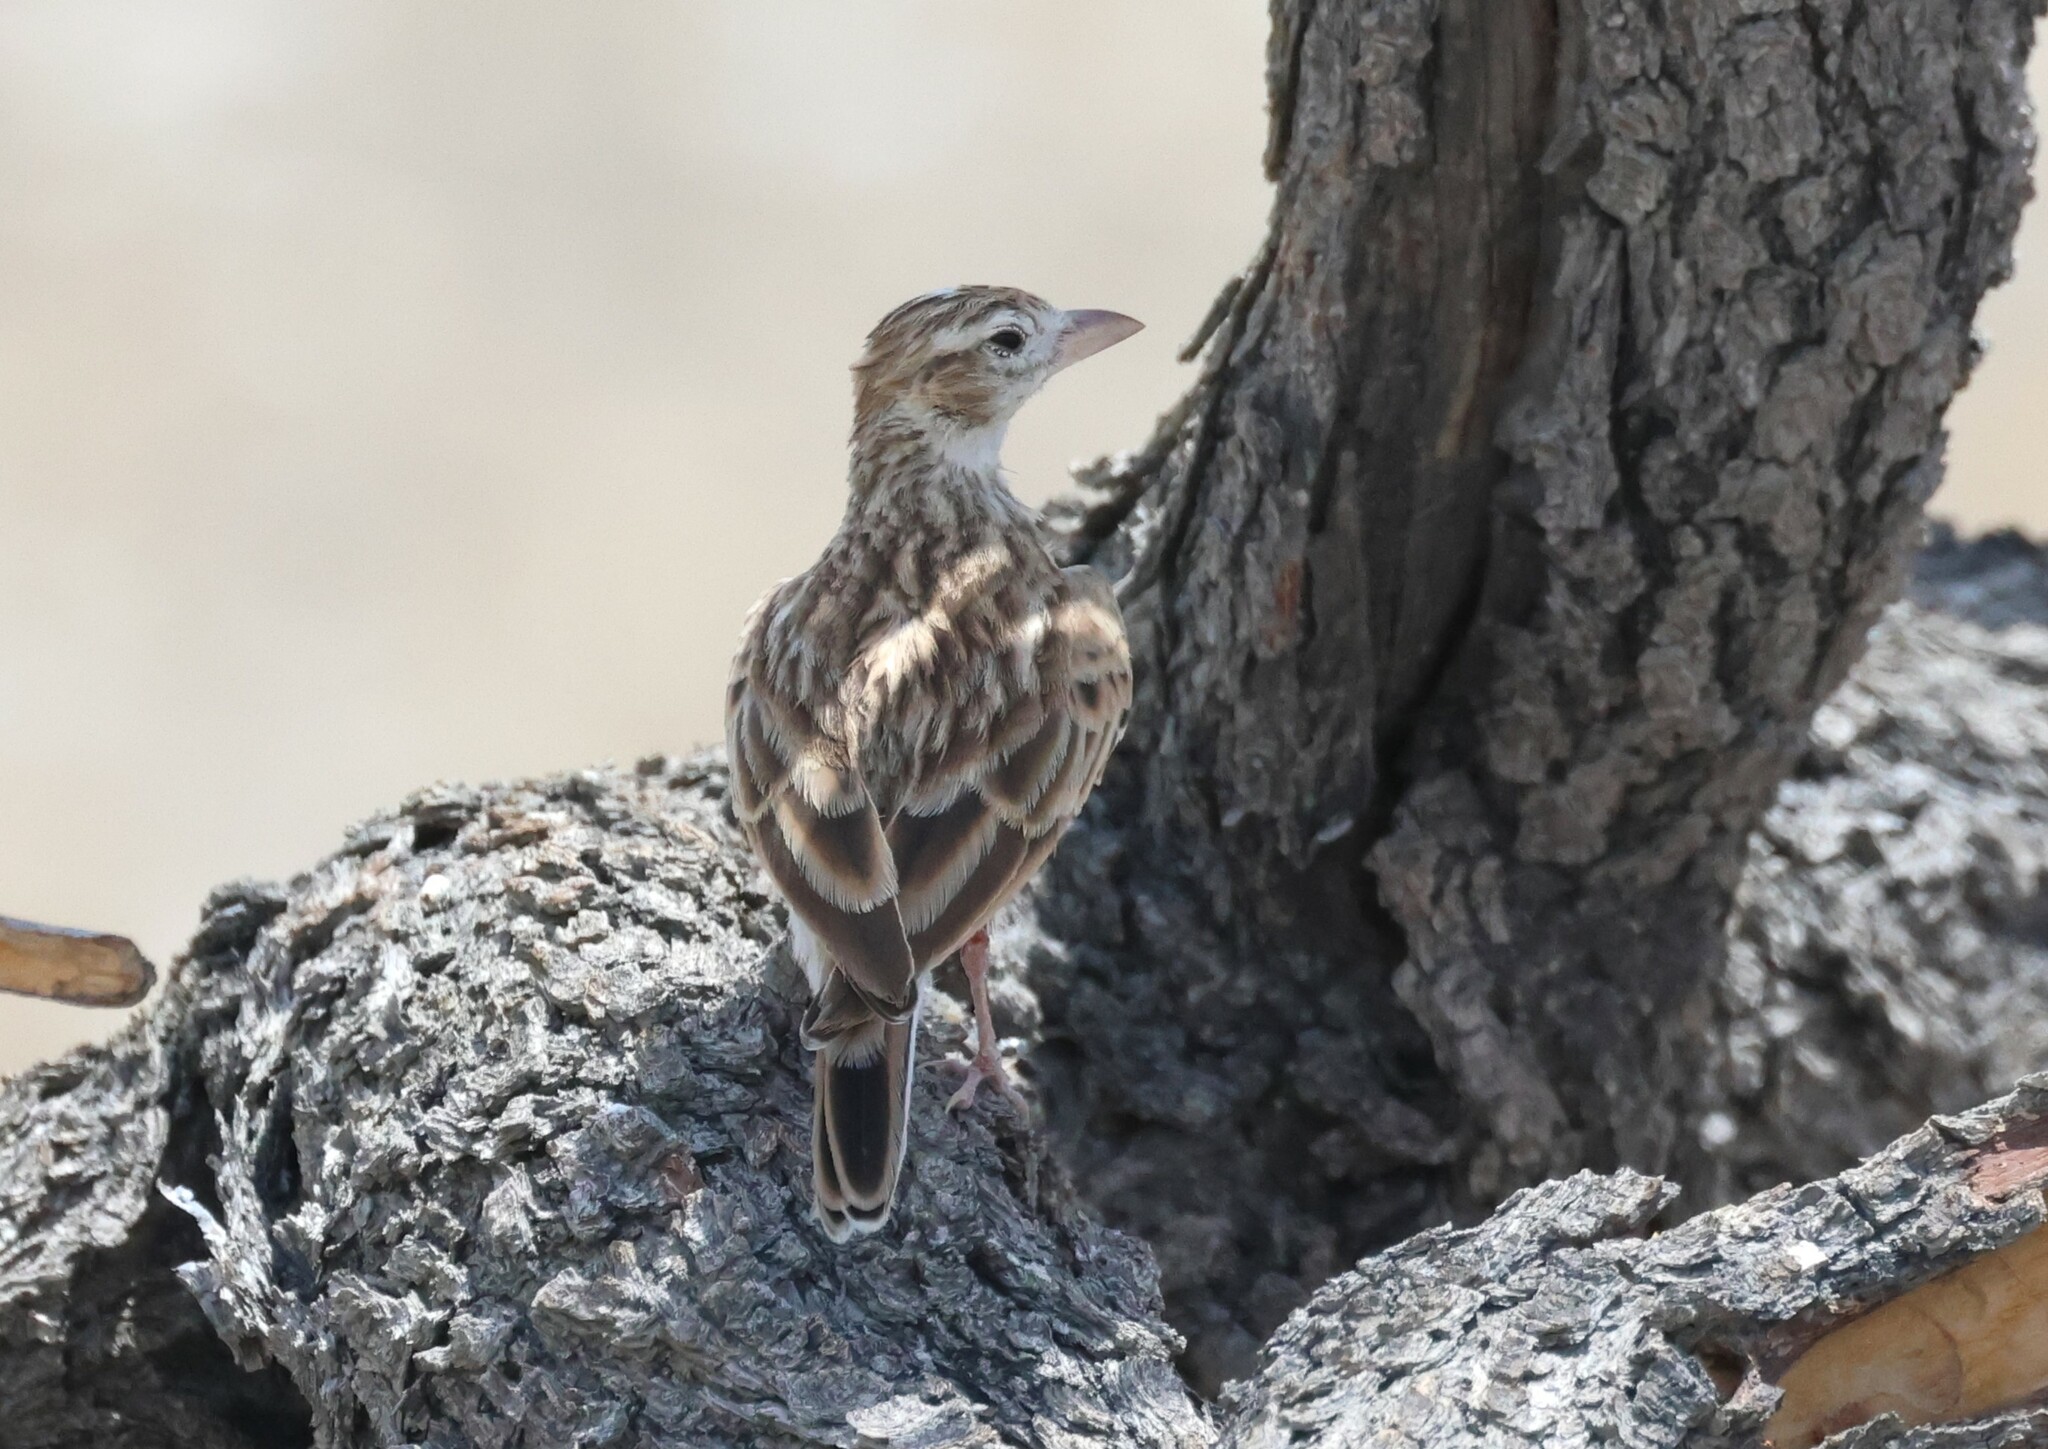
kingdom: Animalia
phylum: Chordata
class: Aves
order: Passeriformes
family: Alaudidae
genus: Spizocorys
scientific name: Spizocorys starki
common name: Stark's lark
